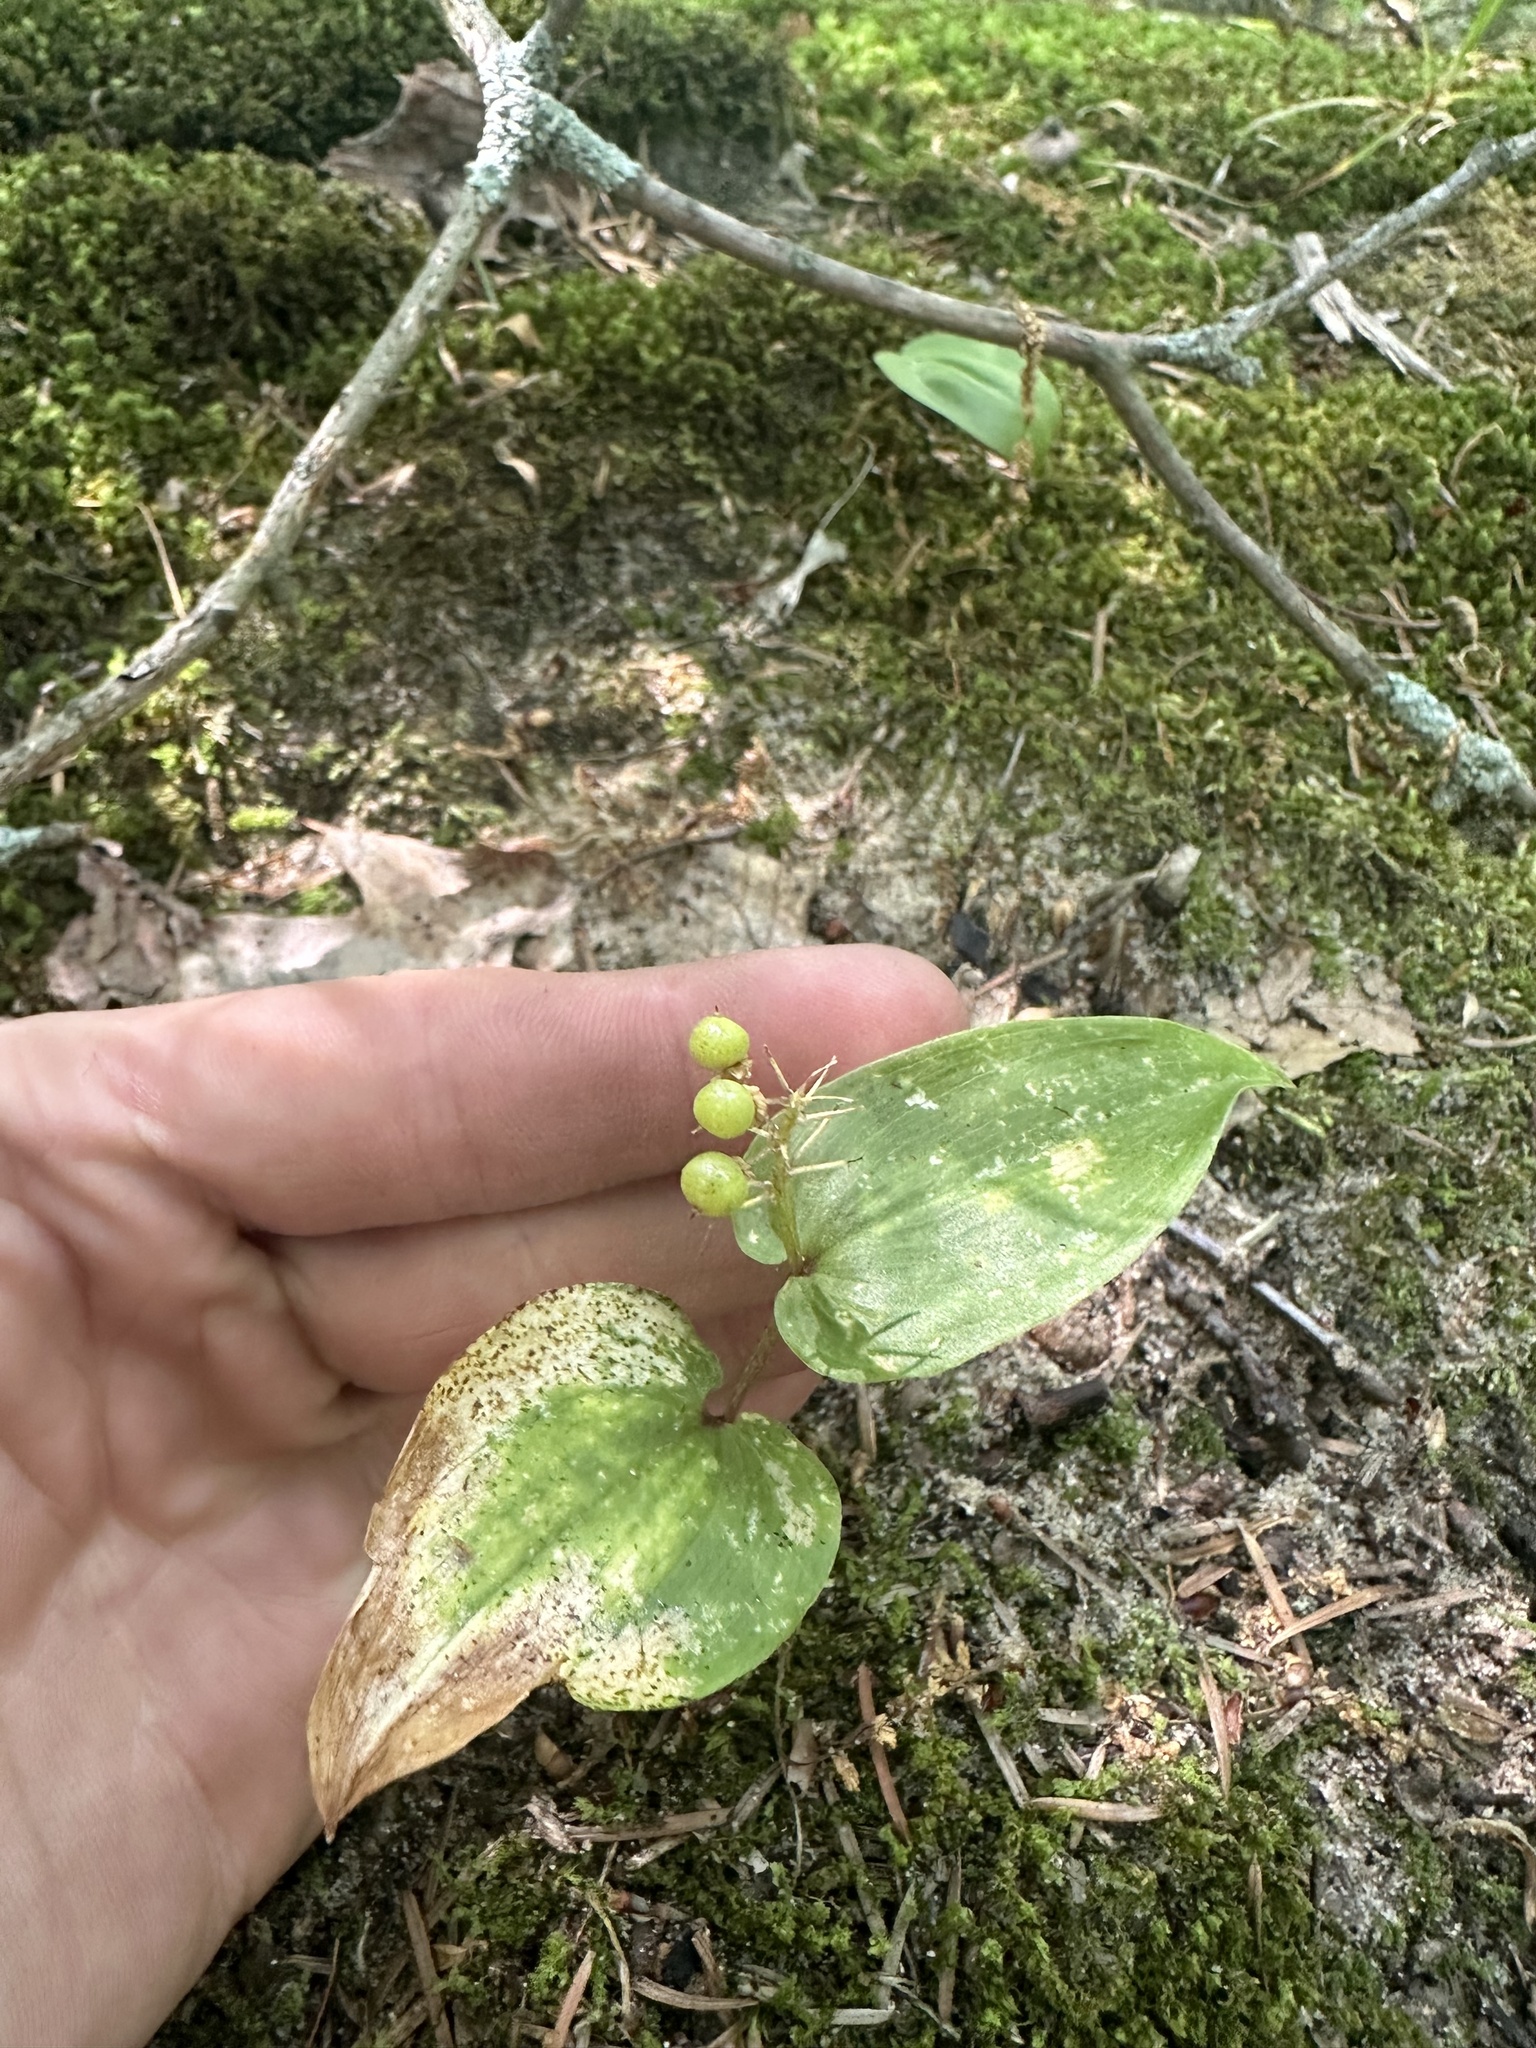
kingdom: Plantae
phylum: Tracheophyta
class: Liliopsida
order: Asparagales
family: Asparagaceae
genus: Maianthemum
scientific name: Maianthemum canadense
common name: False lily-of-the-valley
